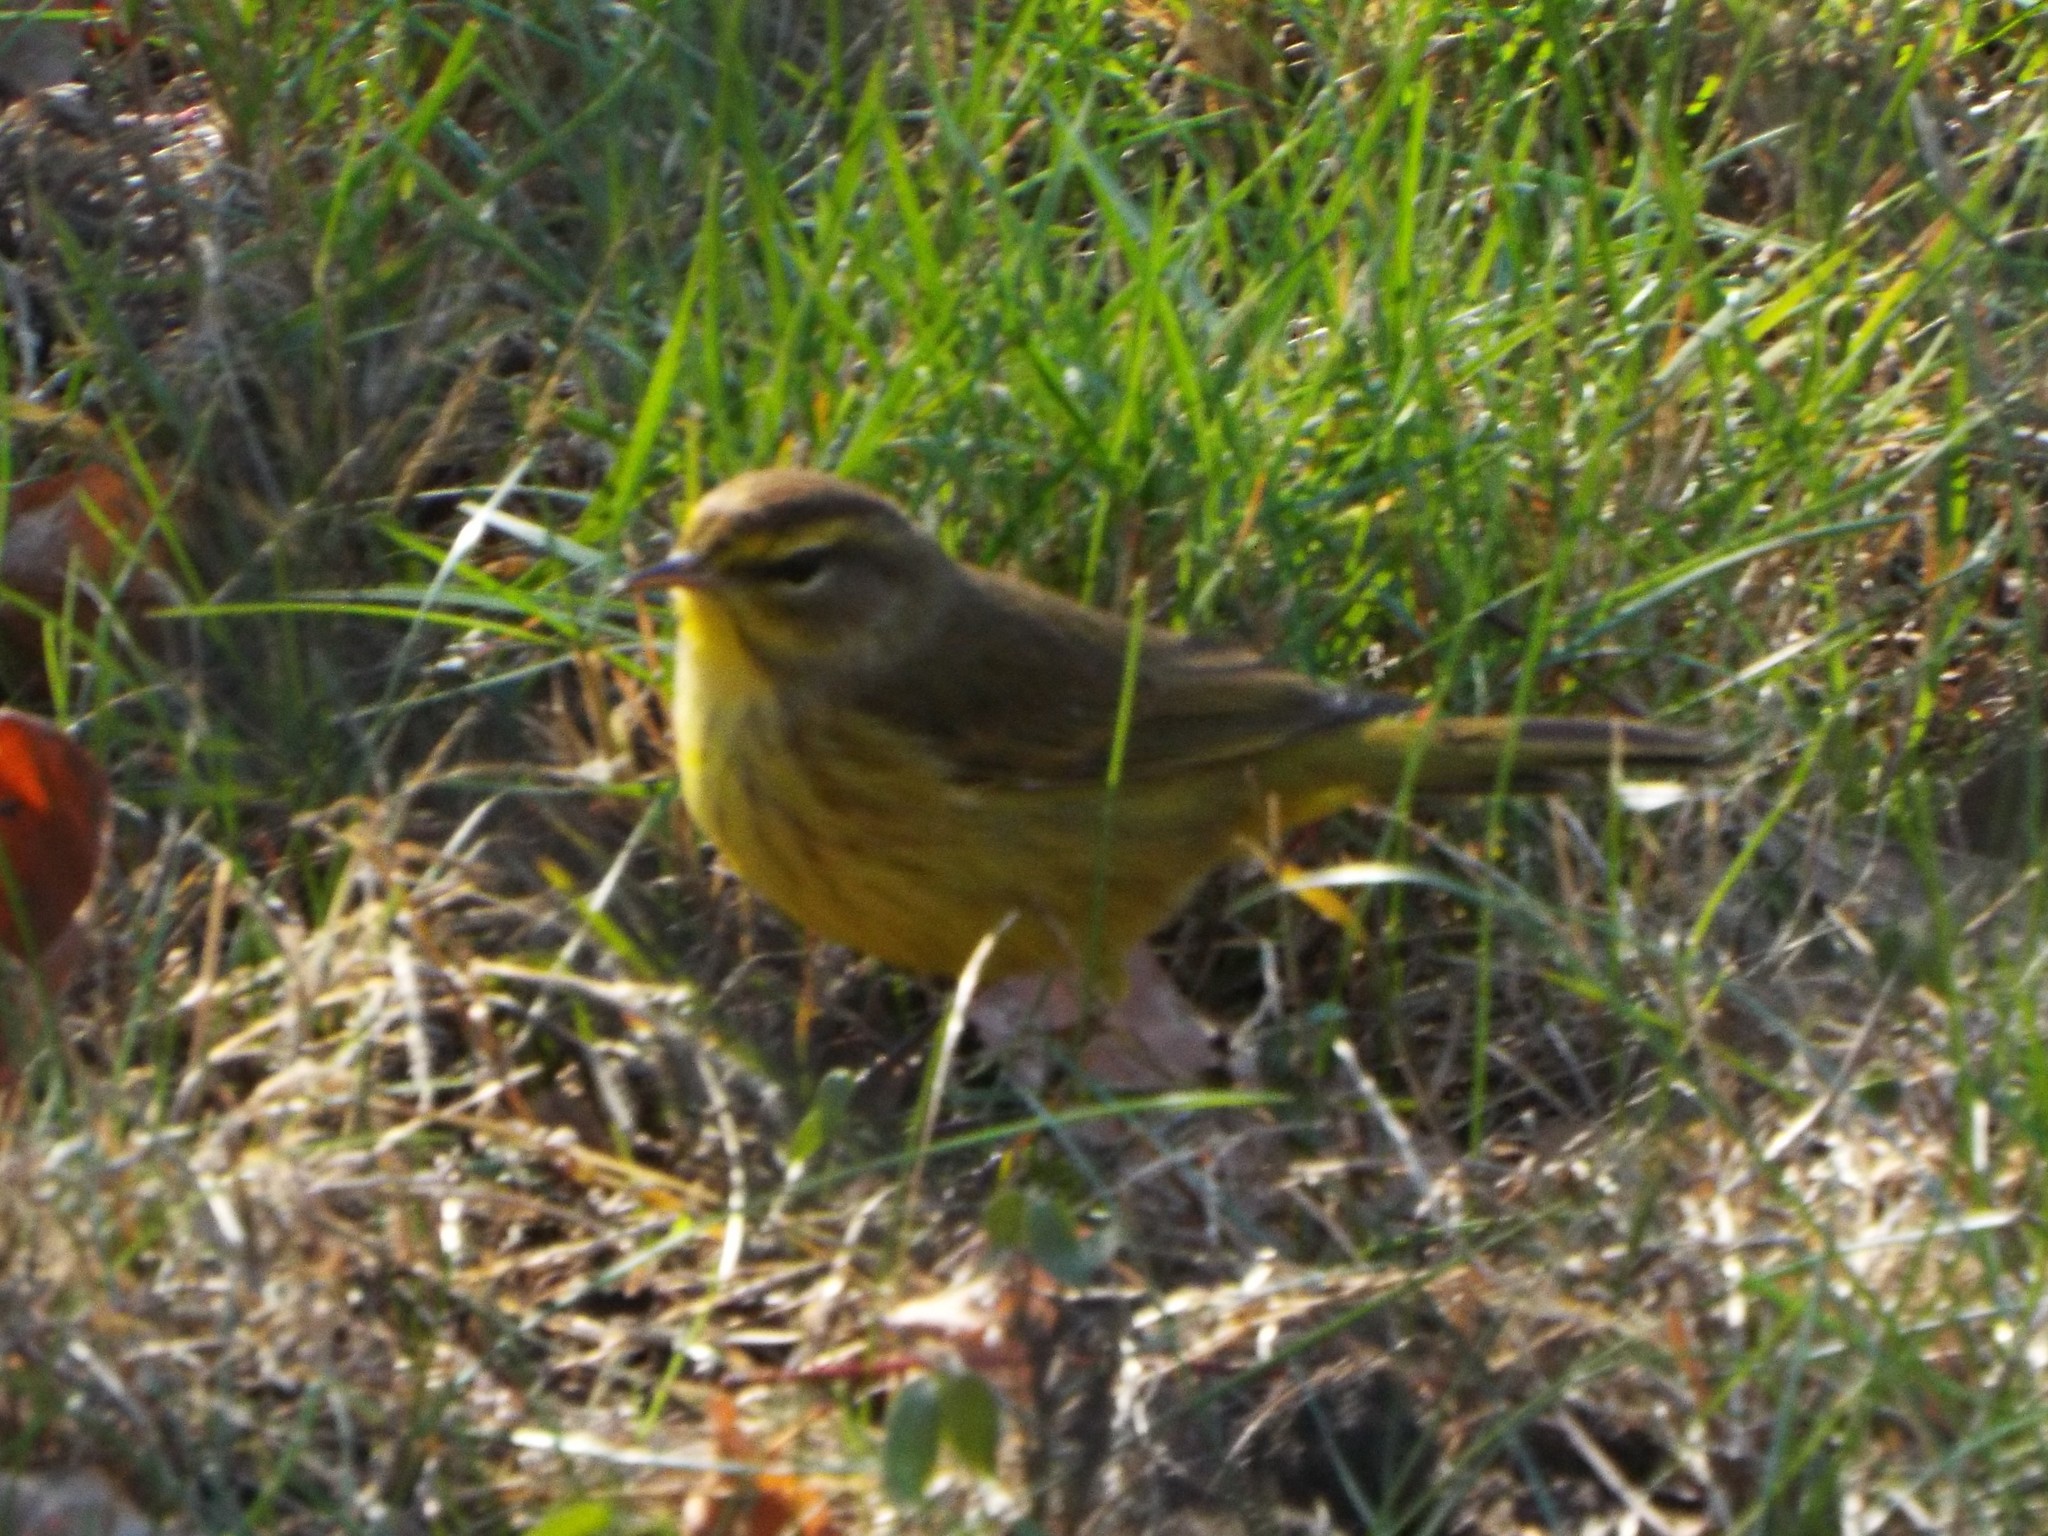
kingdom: Animalia
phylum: Chordata
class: Aves
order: Passeriformes
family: Parulidae
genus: Setophaga
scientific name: Setophaga palmarum
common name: Palm warbler
